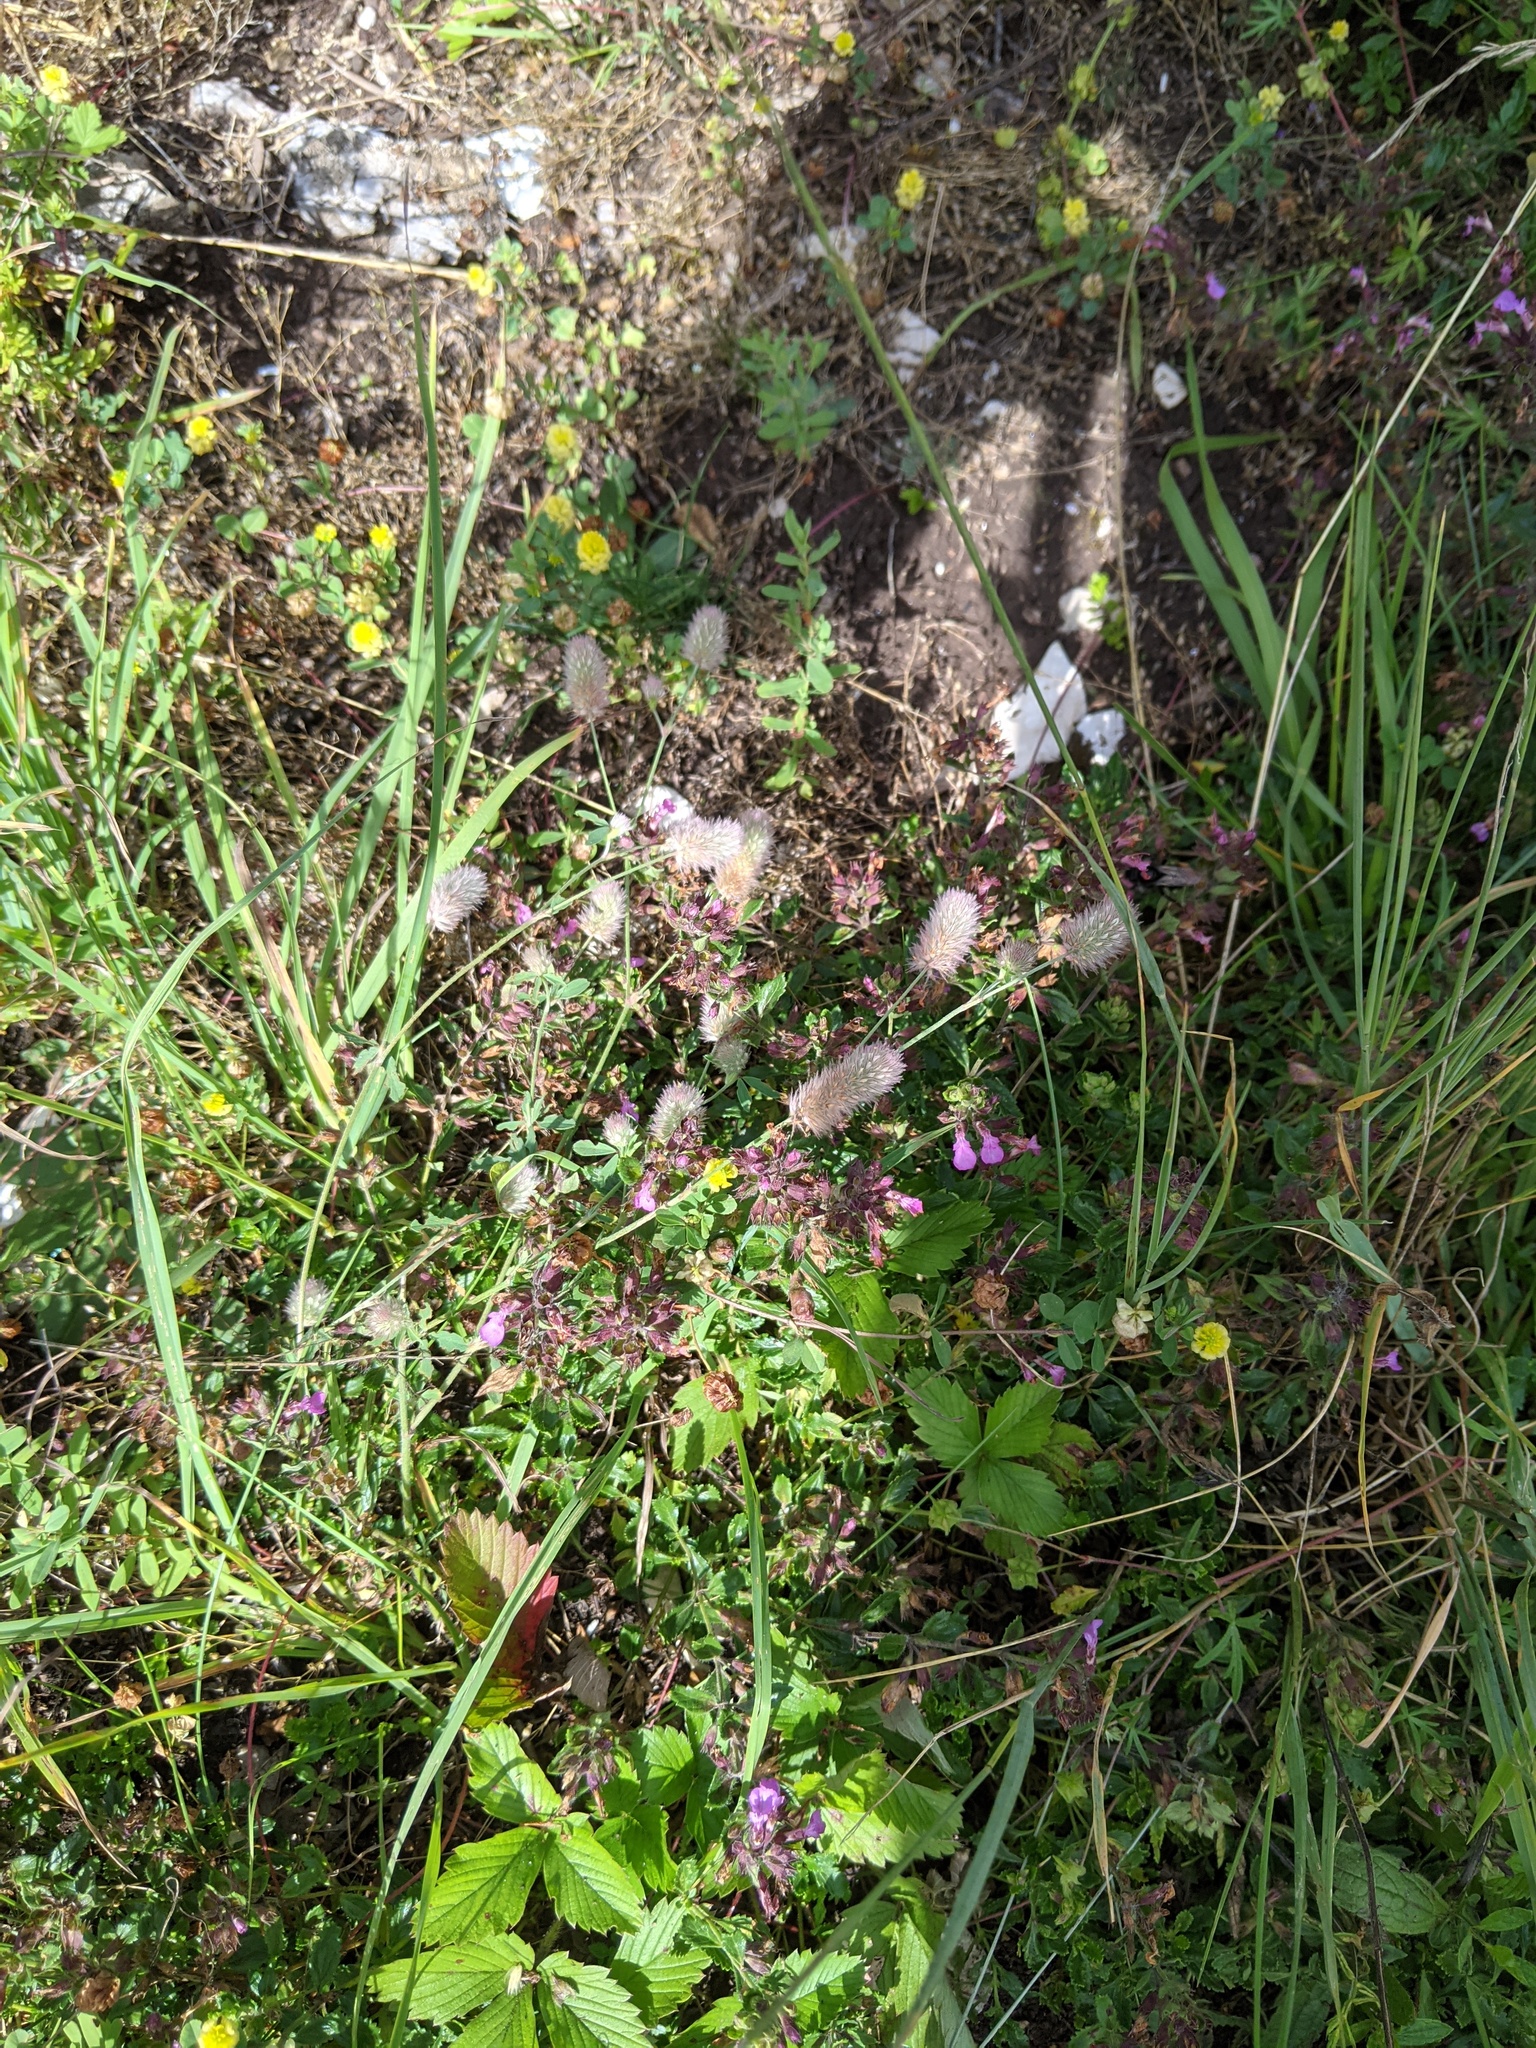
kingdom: Plantae
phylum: Tracheophyta
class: Magnoliopsida
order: Fabales
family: Fabaceae
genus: Trifolium
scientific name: Trifolium arvense
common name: Hare's-foot clover
